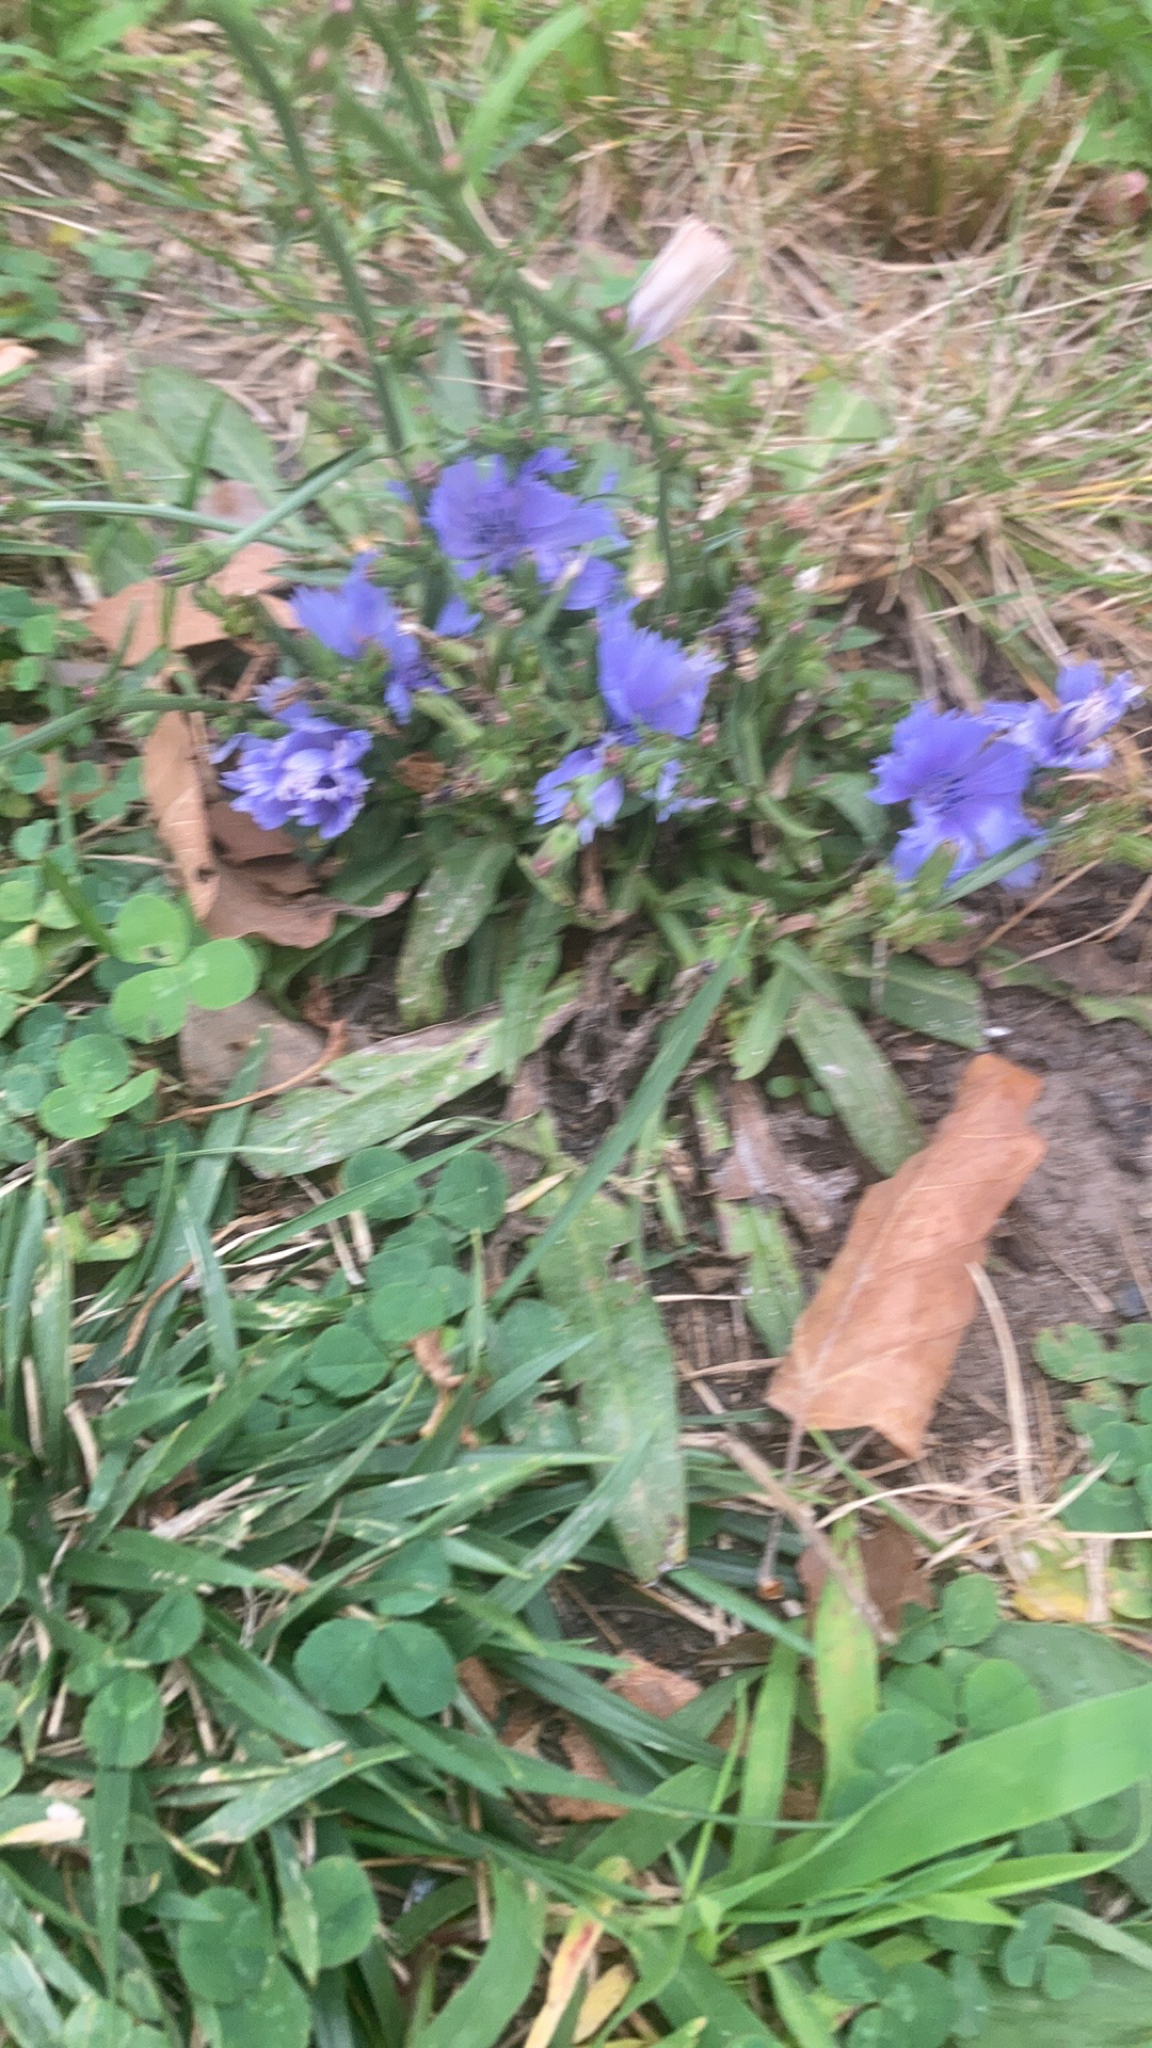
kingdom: Plantae
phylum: Tracheophyta
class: Magnoliopsida
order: Asterales
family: Asteraceae
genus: Cichorium
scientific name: Cichorium intybus
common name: Chicory
